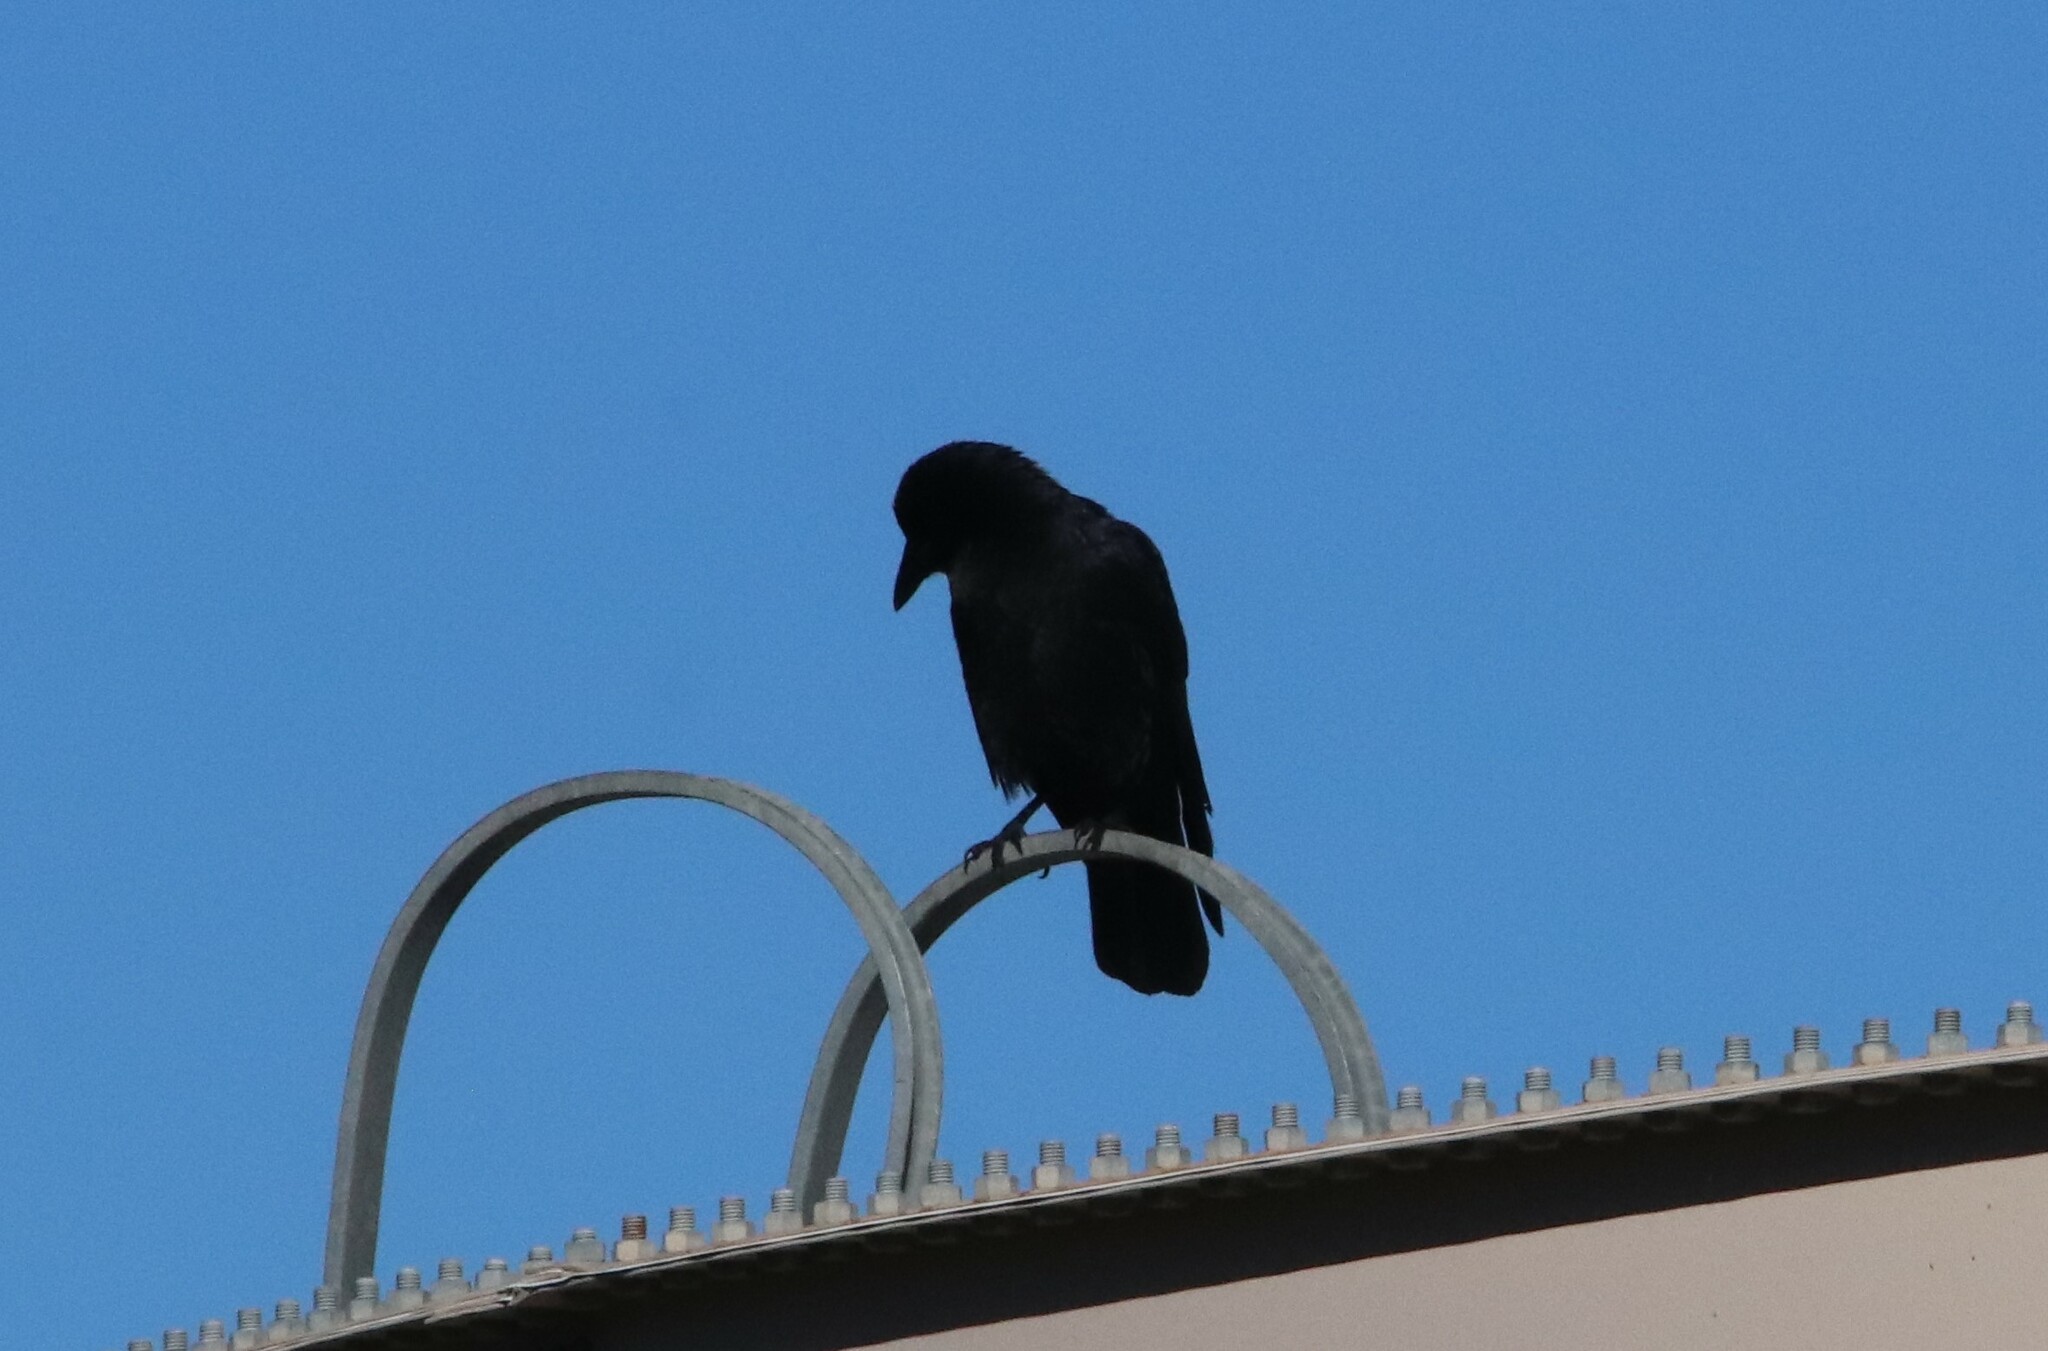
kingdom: Animalia
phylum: Chordata
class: Aves
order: Passeriformes
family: Corvidae
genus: Corvus
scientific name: Corvus brachyrhynchos
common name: American crow
